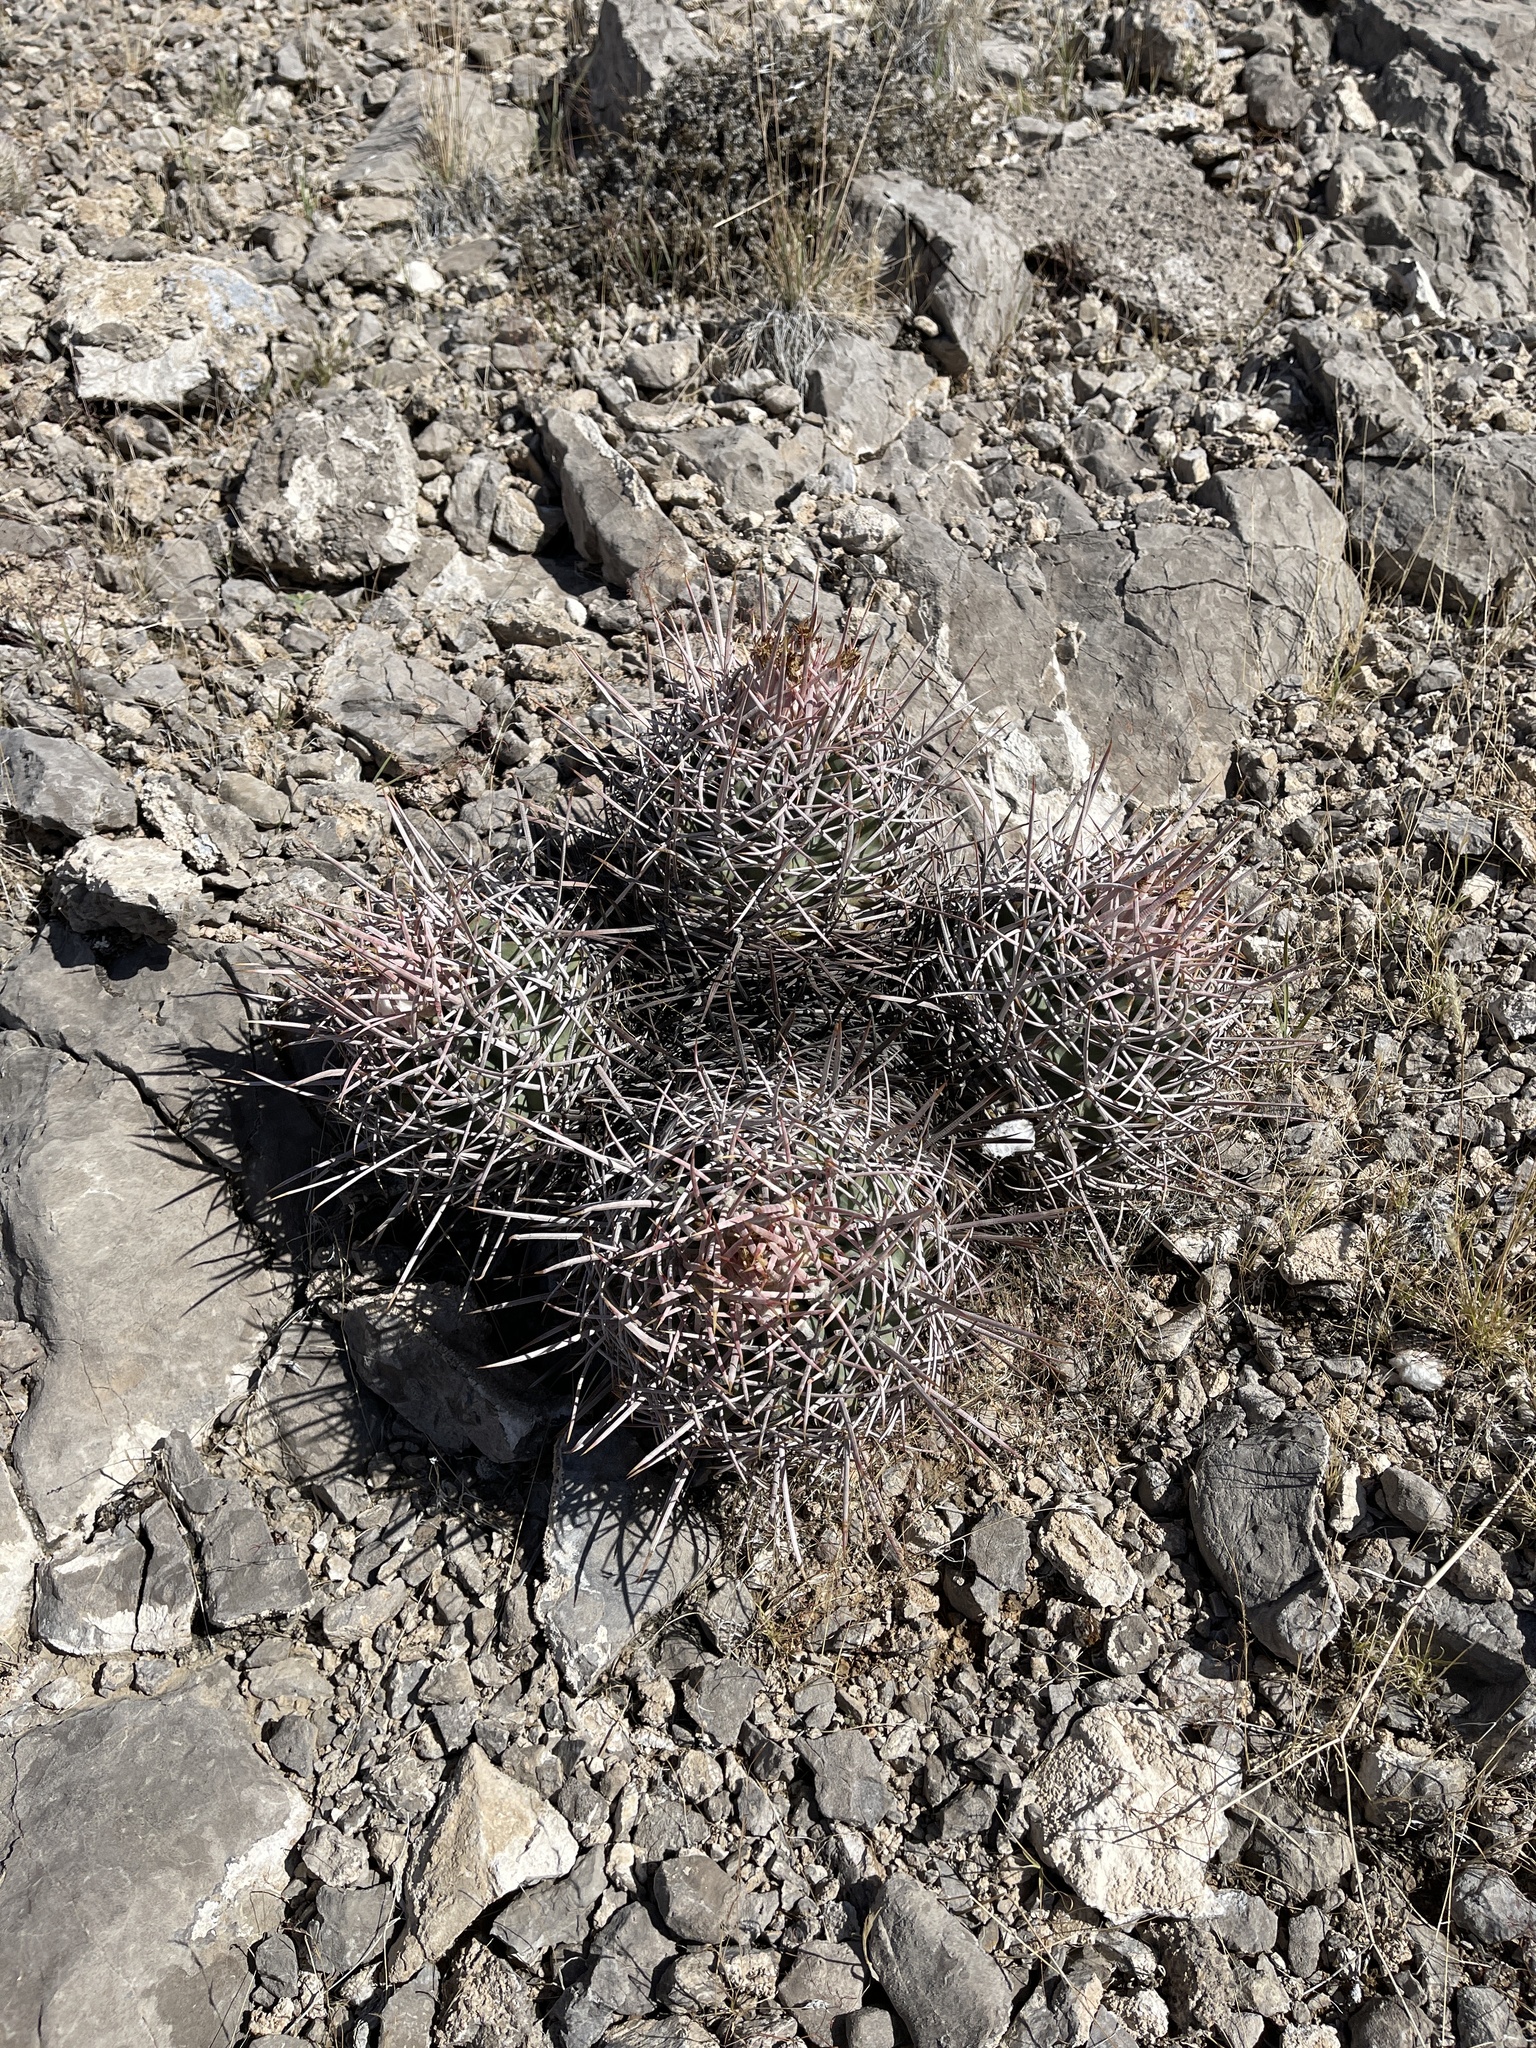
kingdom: Plantae
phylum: Tracheophyta
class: Magnoliopsida
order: Caryophyllales
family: Cactaceae
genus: Echinocactus
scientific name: Echinocactus polycephalus
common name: Cottontop cactus
